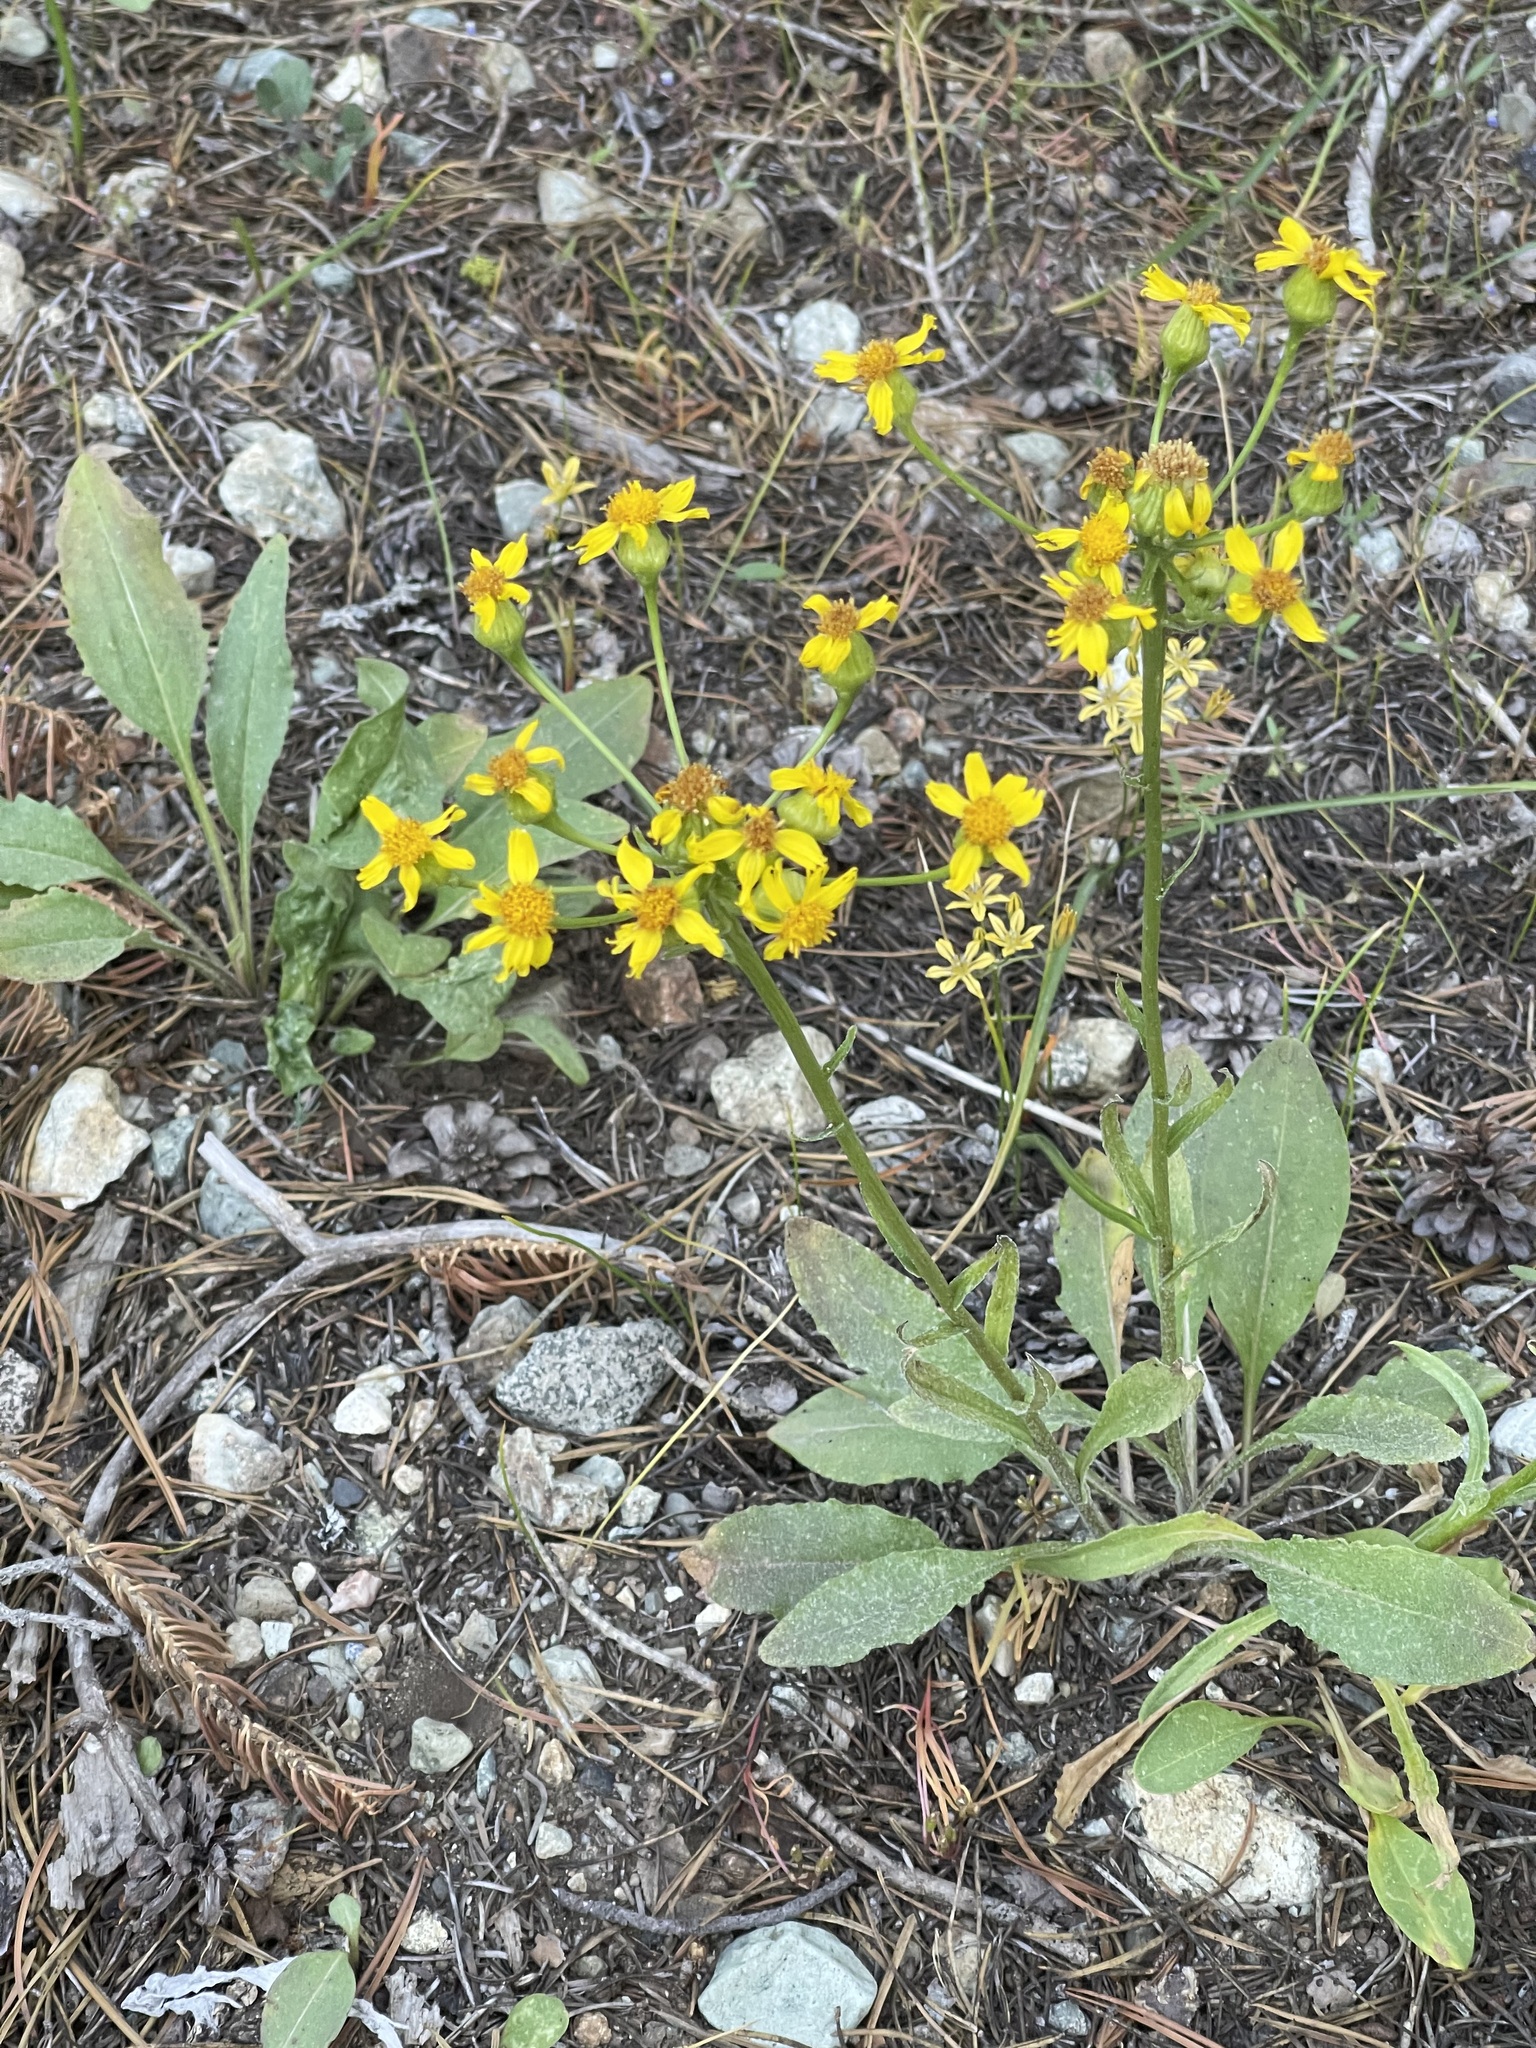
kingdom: Plantae
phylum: Tracheophyta
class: Magnoliopsida
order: Asterales
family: Asteraceae
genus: Senecio
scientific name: Senecio integerrimus
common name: Gaugeplant
